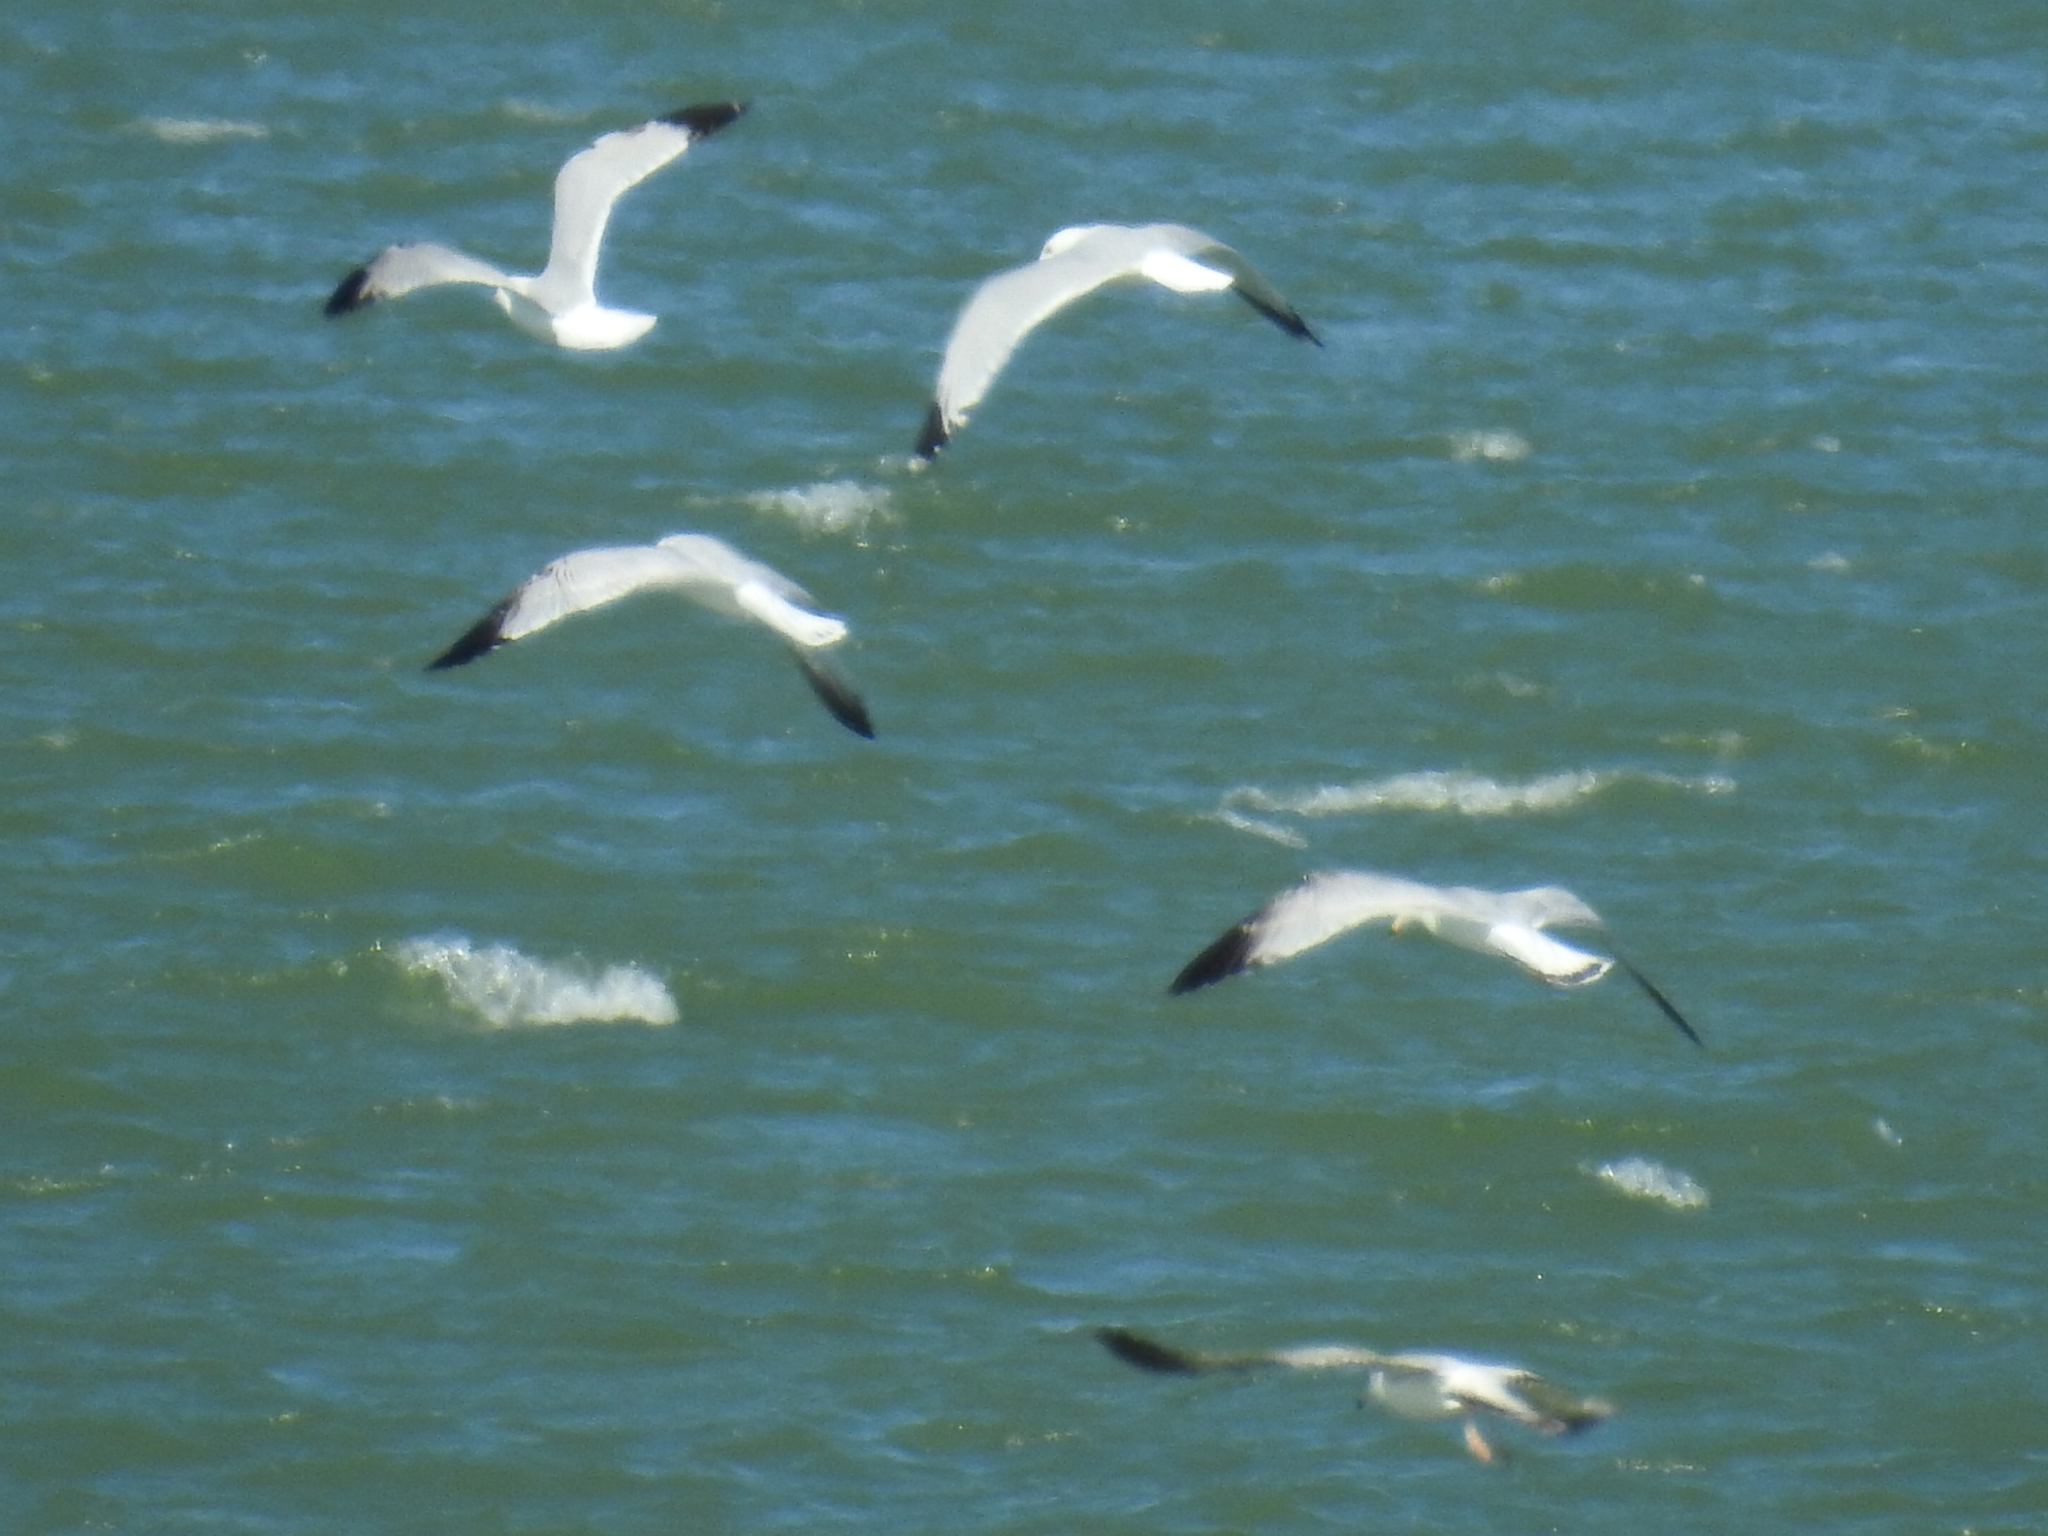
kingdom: Animalia
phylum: Chordata
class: Aves
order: Charadriiformes
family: Laridae
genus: Larus
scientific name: Larus delawarensis
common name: Ring-billed gull
